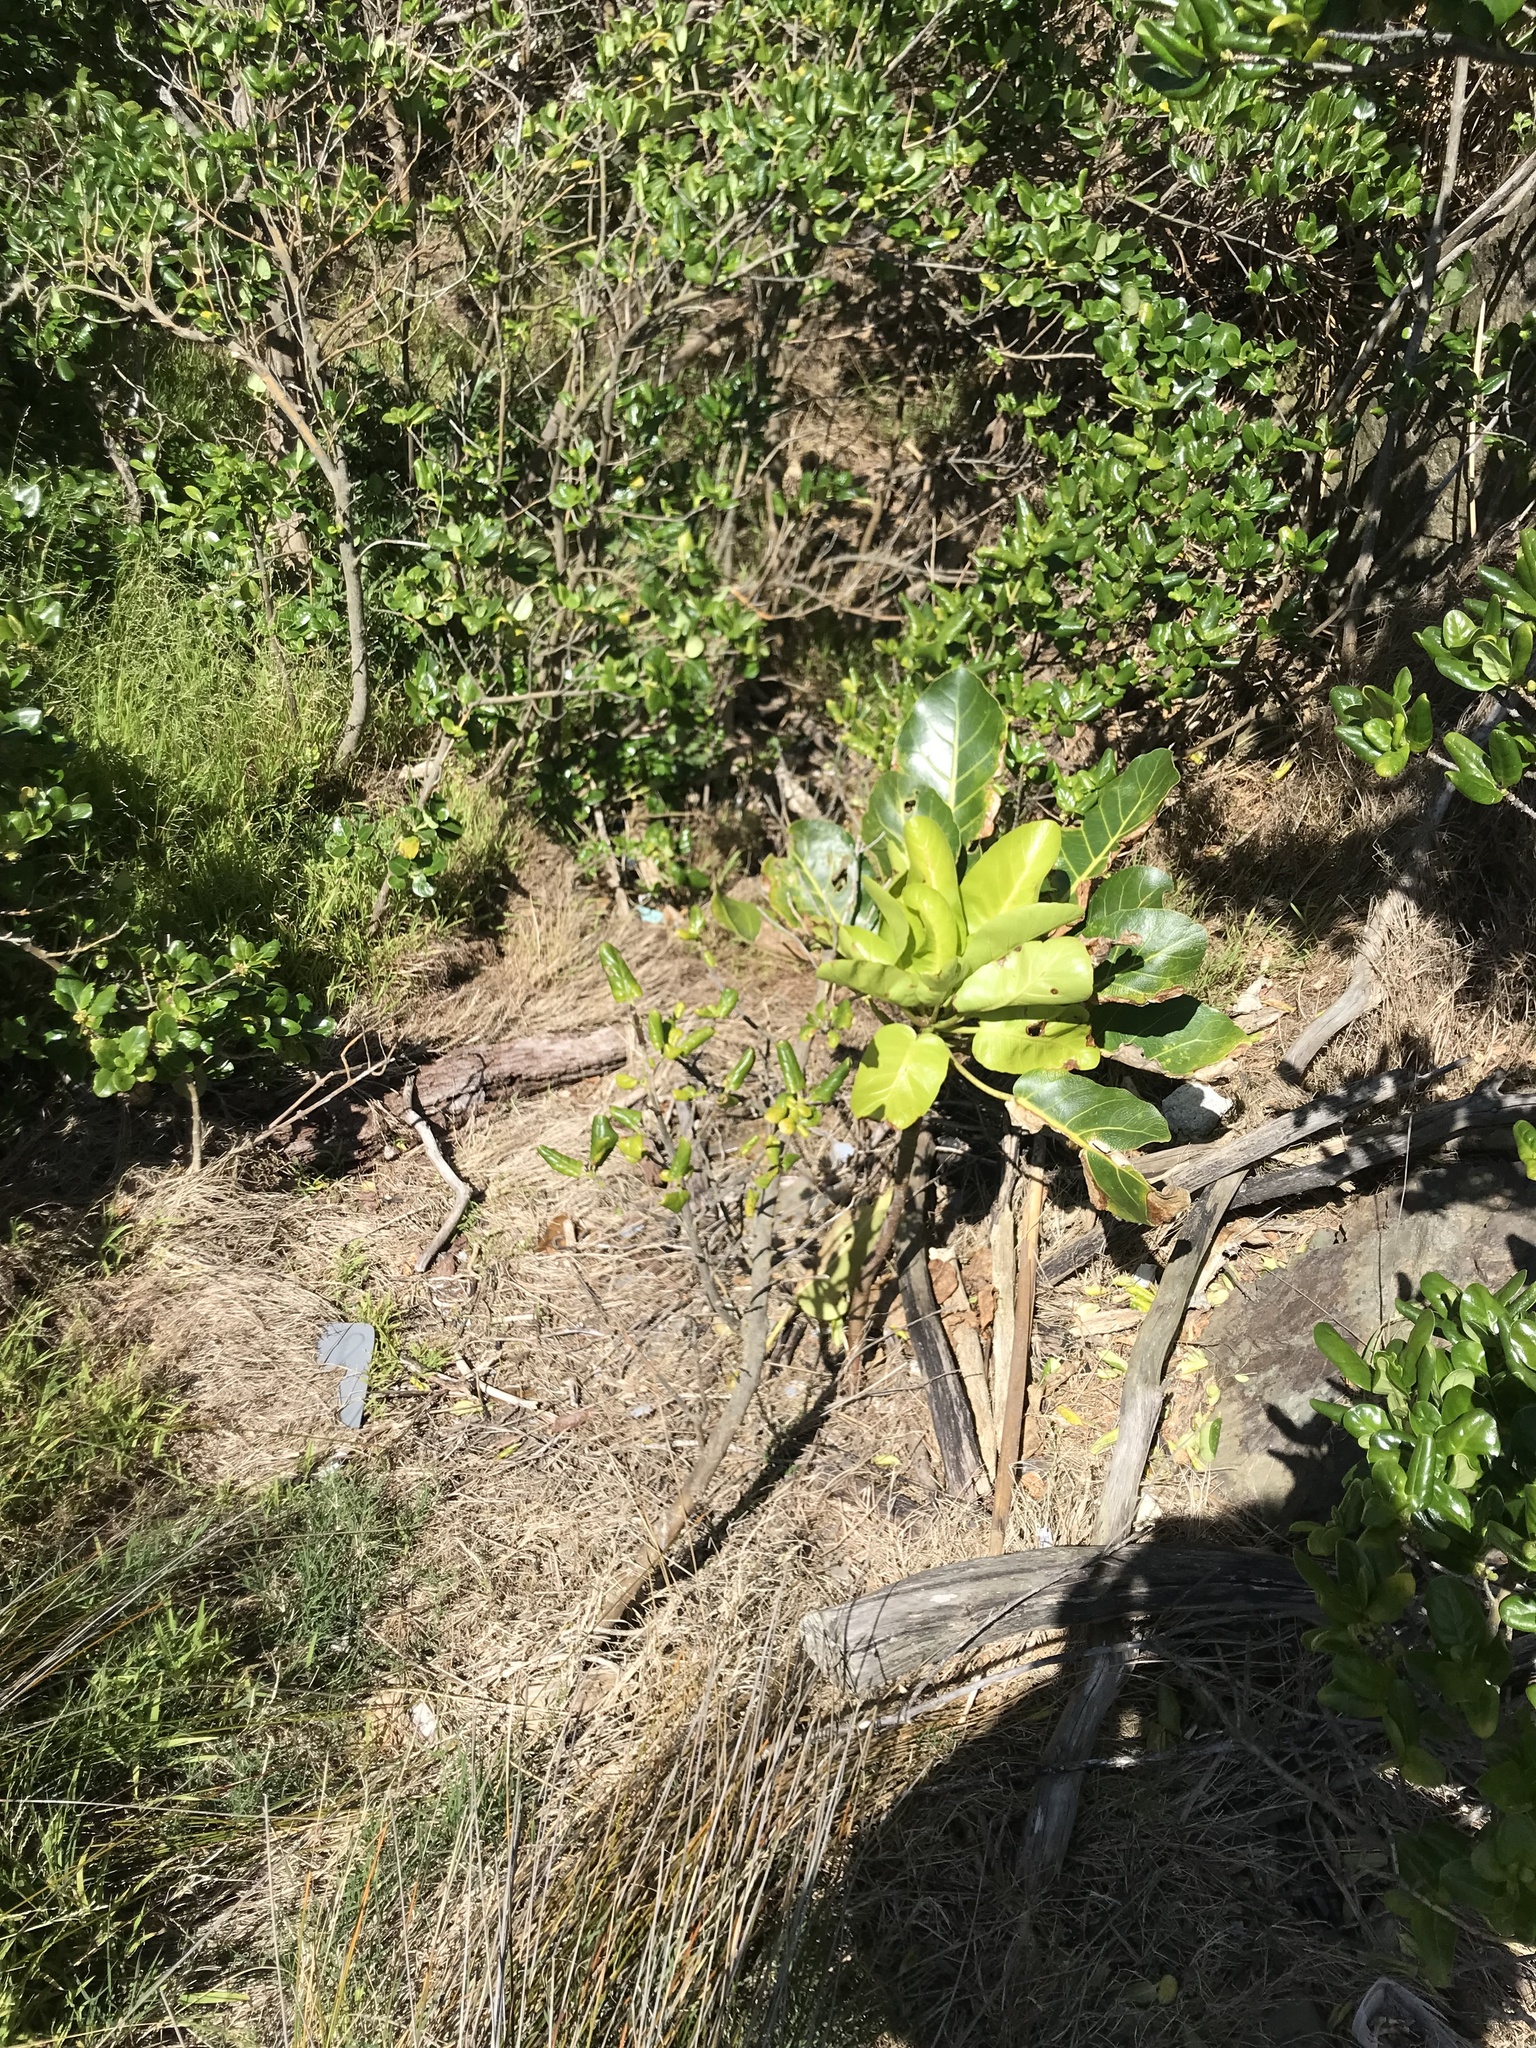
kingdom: Plantae
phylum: Tracheophyta
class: Magnoliopsida
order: Apiales
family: Araliaceae
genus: Meryta
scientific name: Meryta sinclairii
